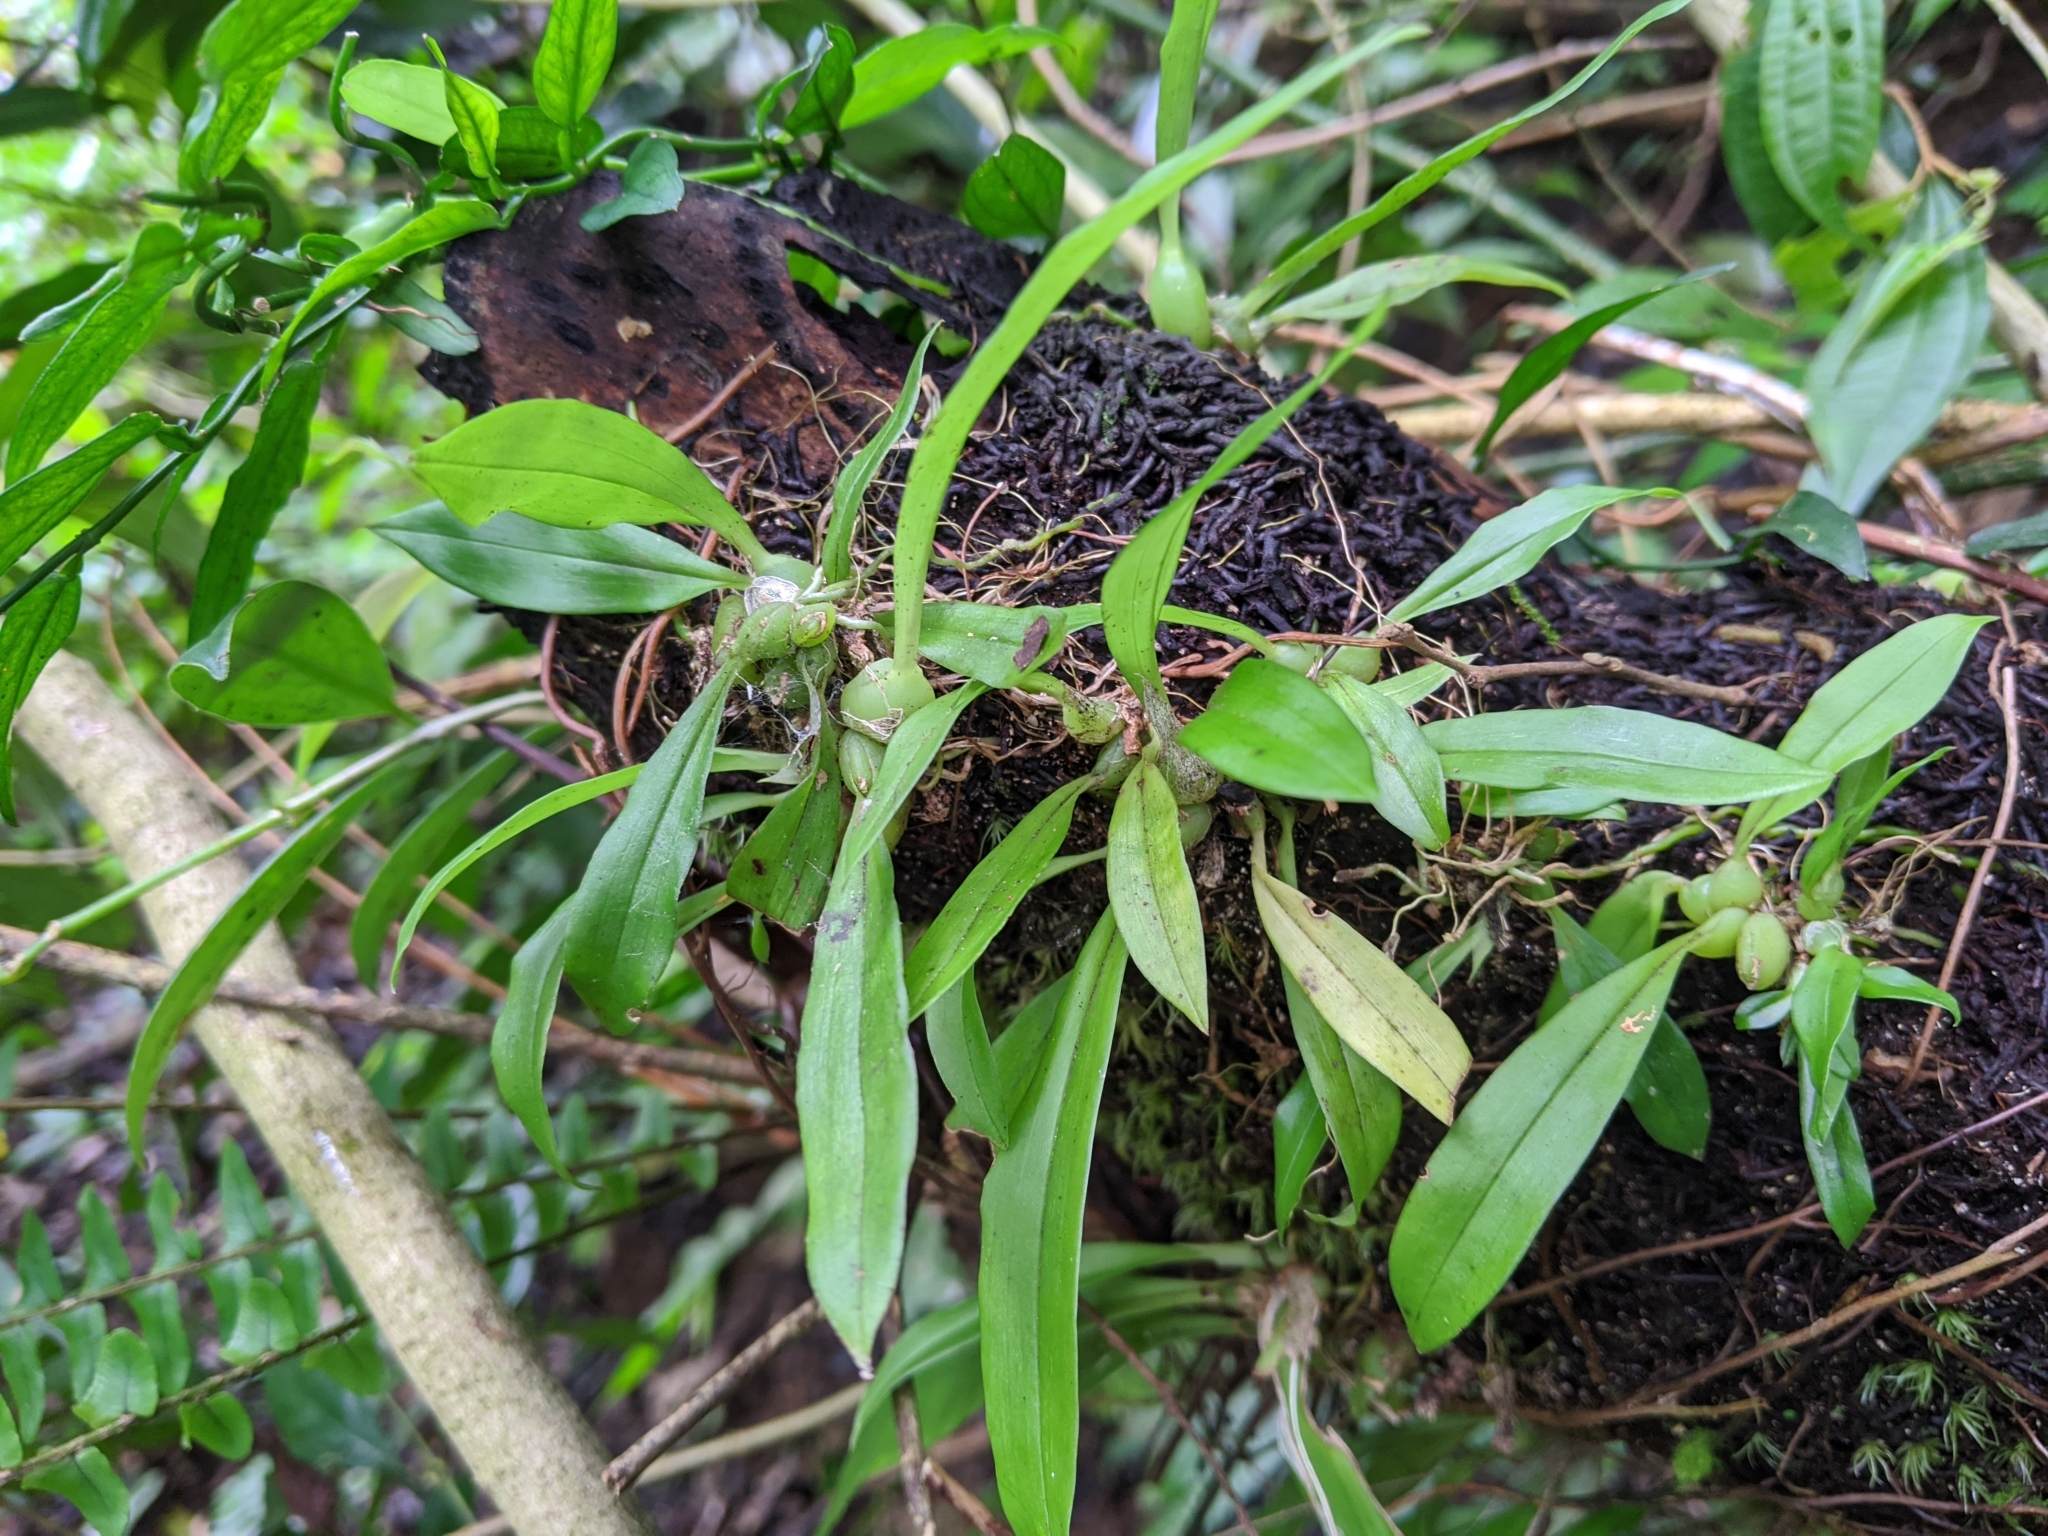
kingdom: Plantae
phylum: Tracheophyta
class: Liliopsida
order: Asparagales
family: Orchidaceae
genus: Liparis
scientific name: Liparis bootanensis
